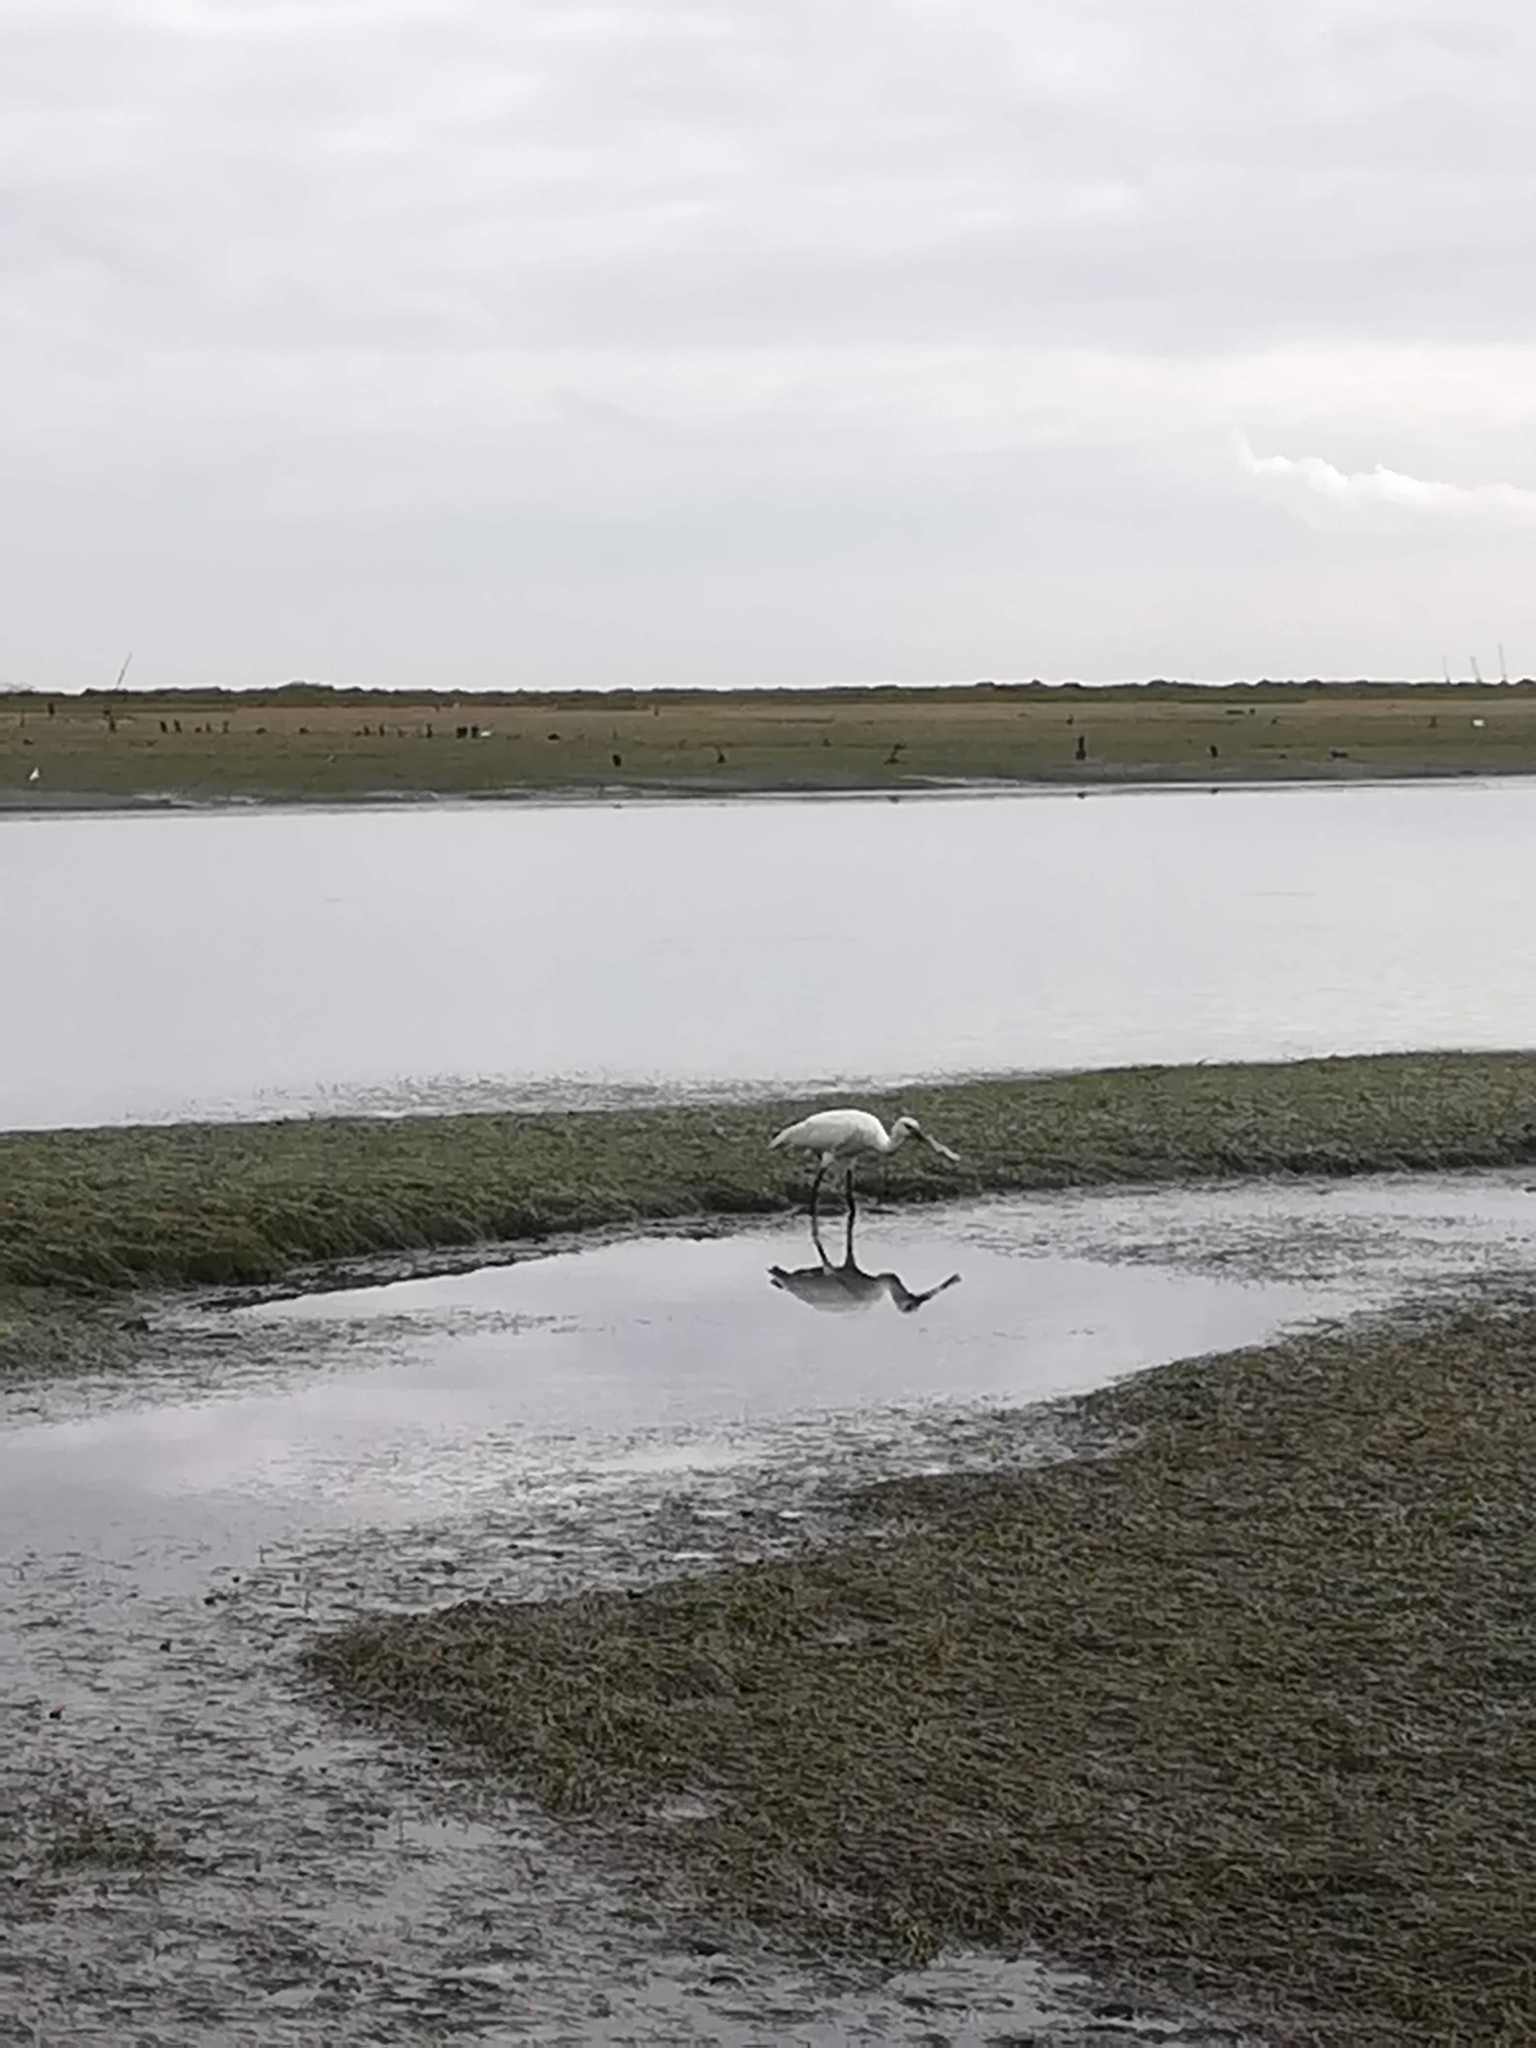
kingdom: Animalia
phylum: Chordata
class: Aves
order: Pelecaniformes
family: Threskiornithidae
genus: Platalea
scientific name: Platalea leucorodia
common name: Eurasian spoonbill
